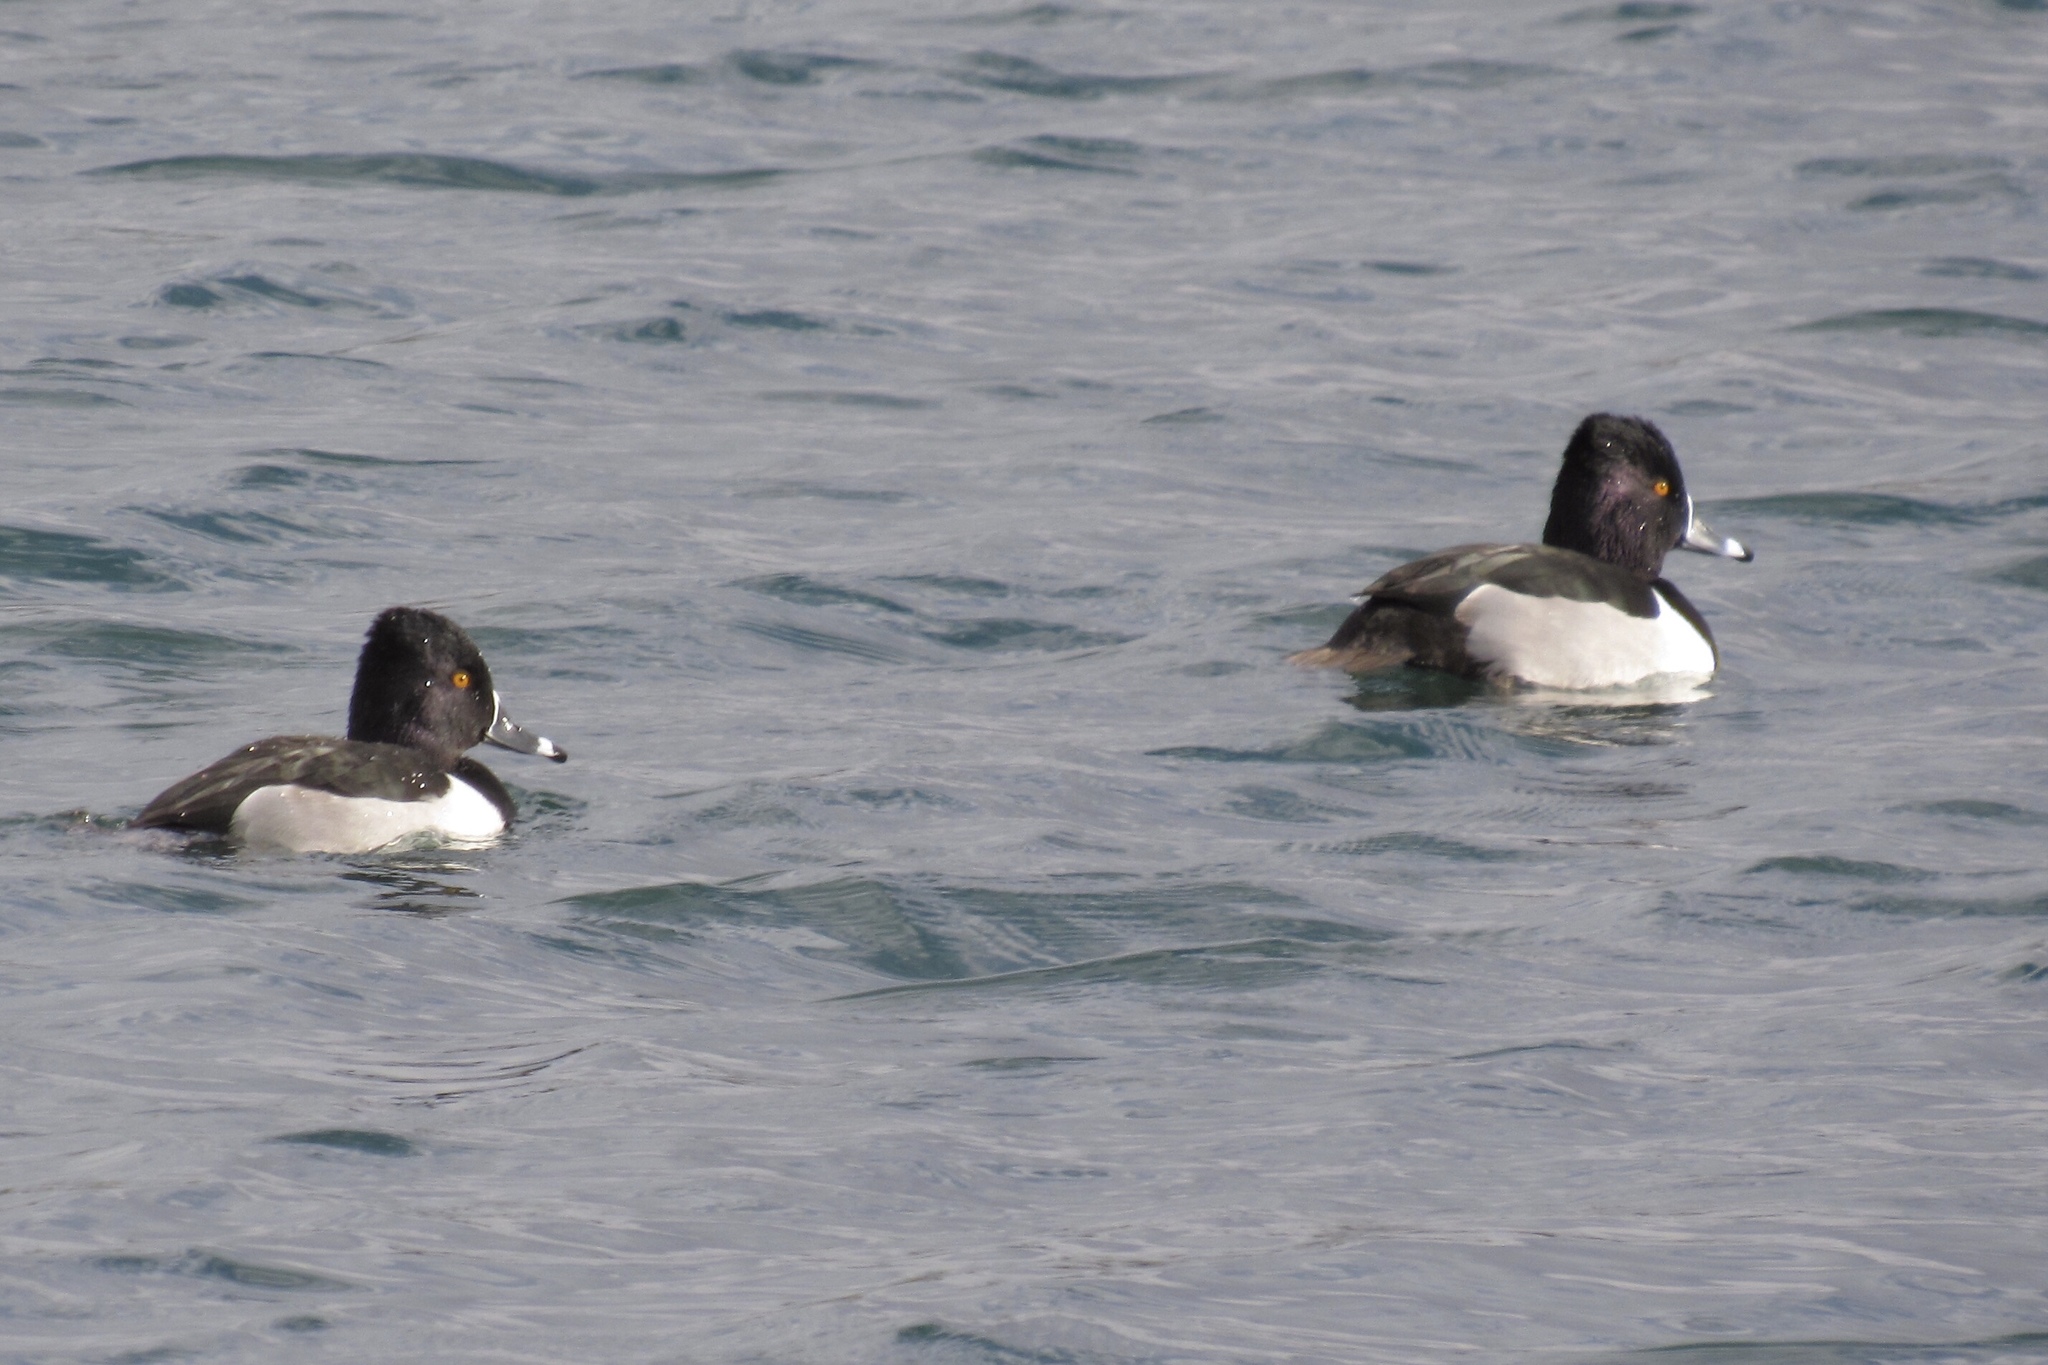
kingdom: Animalia
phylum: Chordata
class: Aves
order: Anseriformes
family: Anatidae
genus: Aythya
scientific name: Aythya collaris
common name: Ring-necked duck
